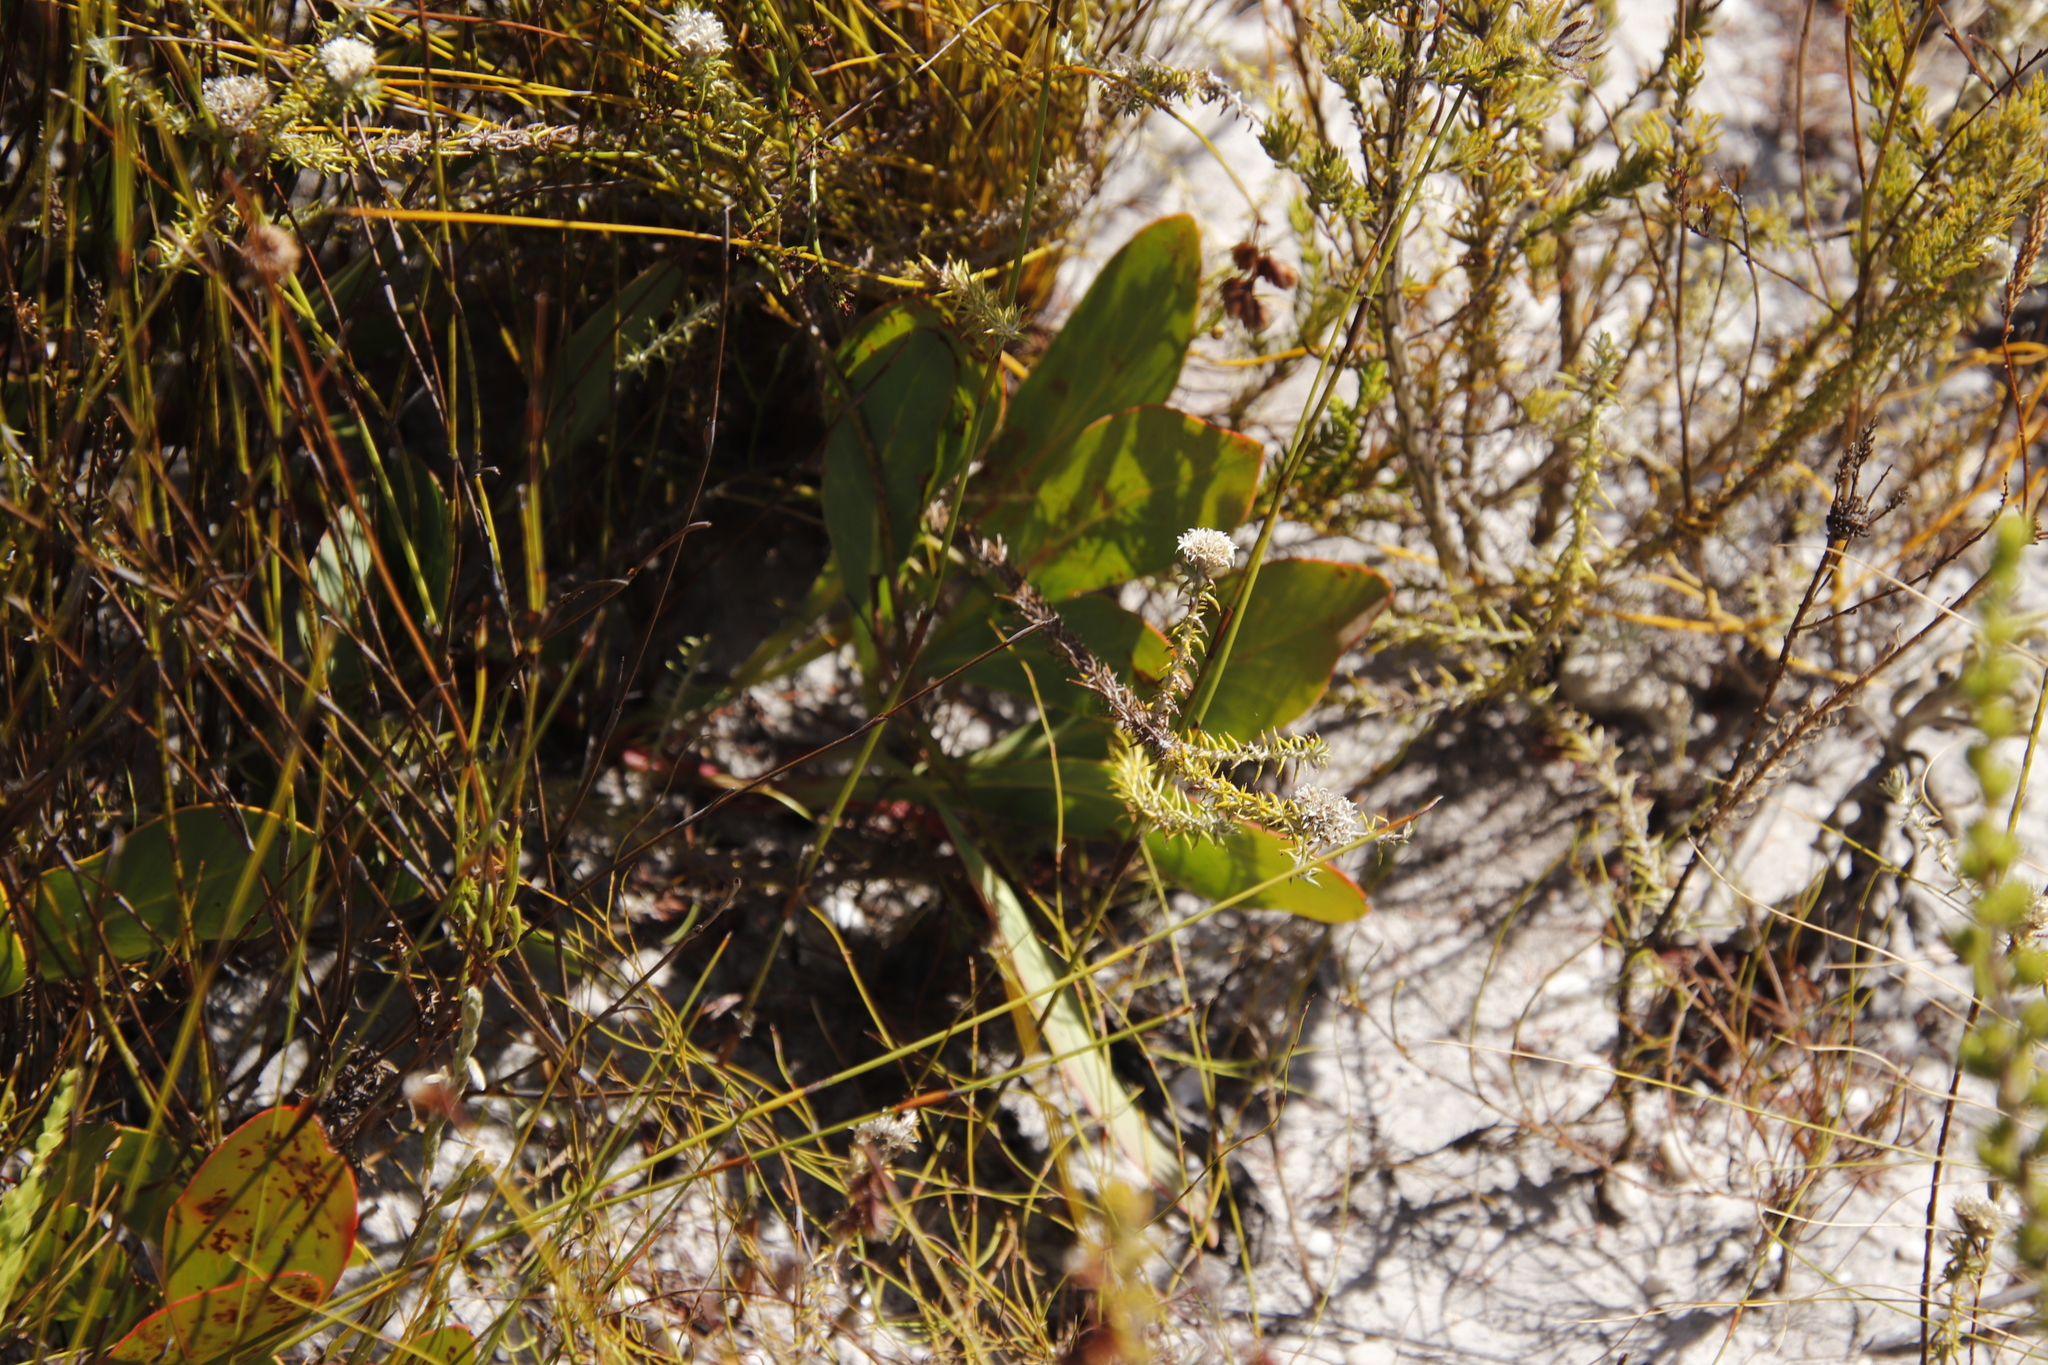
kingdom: Plantae
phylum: Tracheophyta
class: Magnoliopsida
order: Proteales
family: Proteaceae
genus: Protea
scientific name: Protea acaulos
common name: Common ground sugarbush
